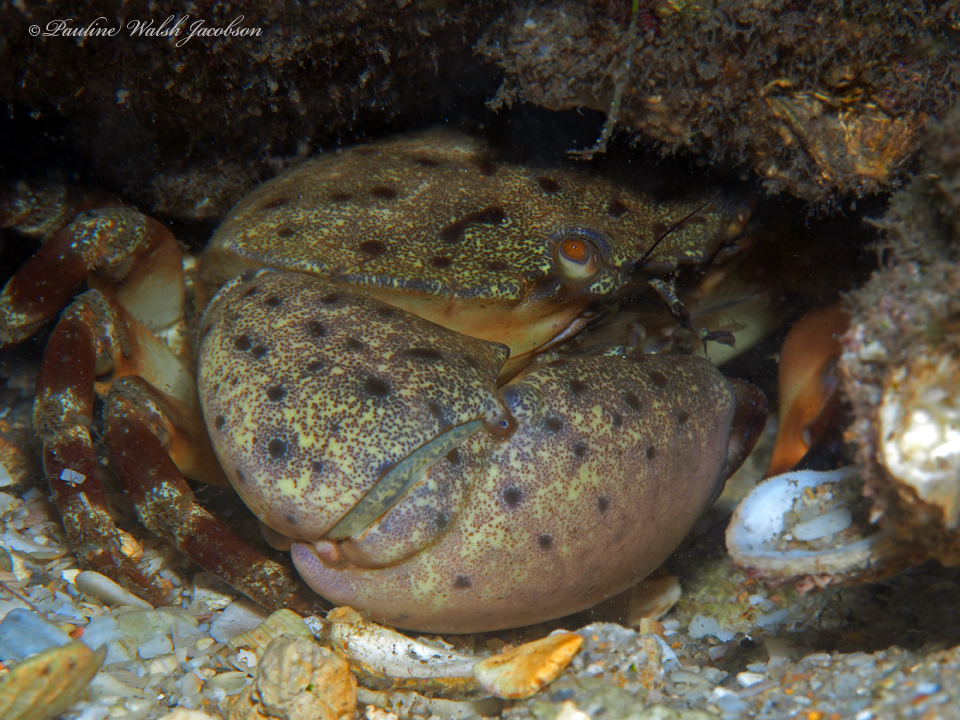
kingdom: Animalia
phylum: Arthropoda
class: Malacostraca
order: Decapoda
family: Menippidae
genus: Menippe
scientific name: Menippe mercenaria
